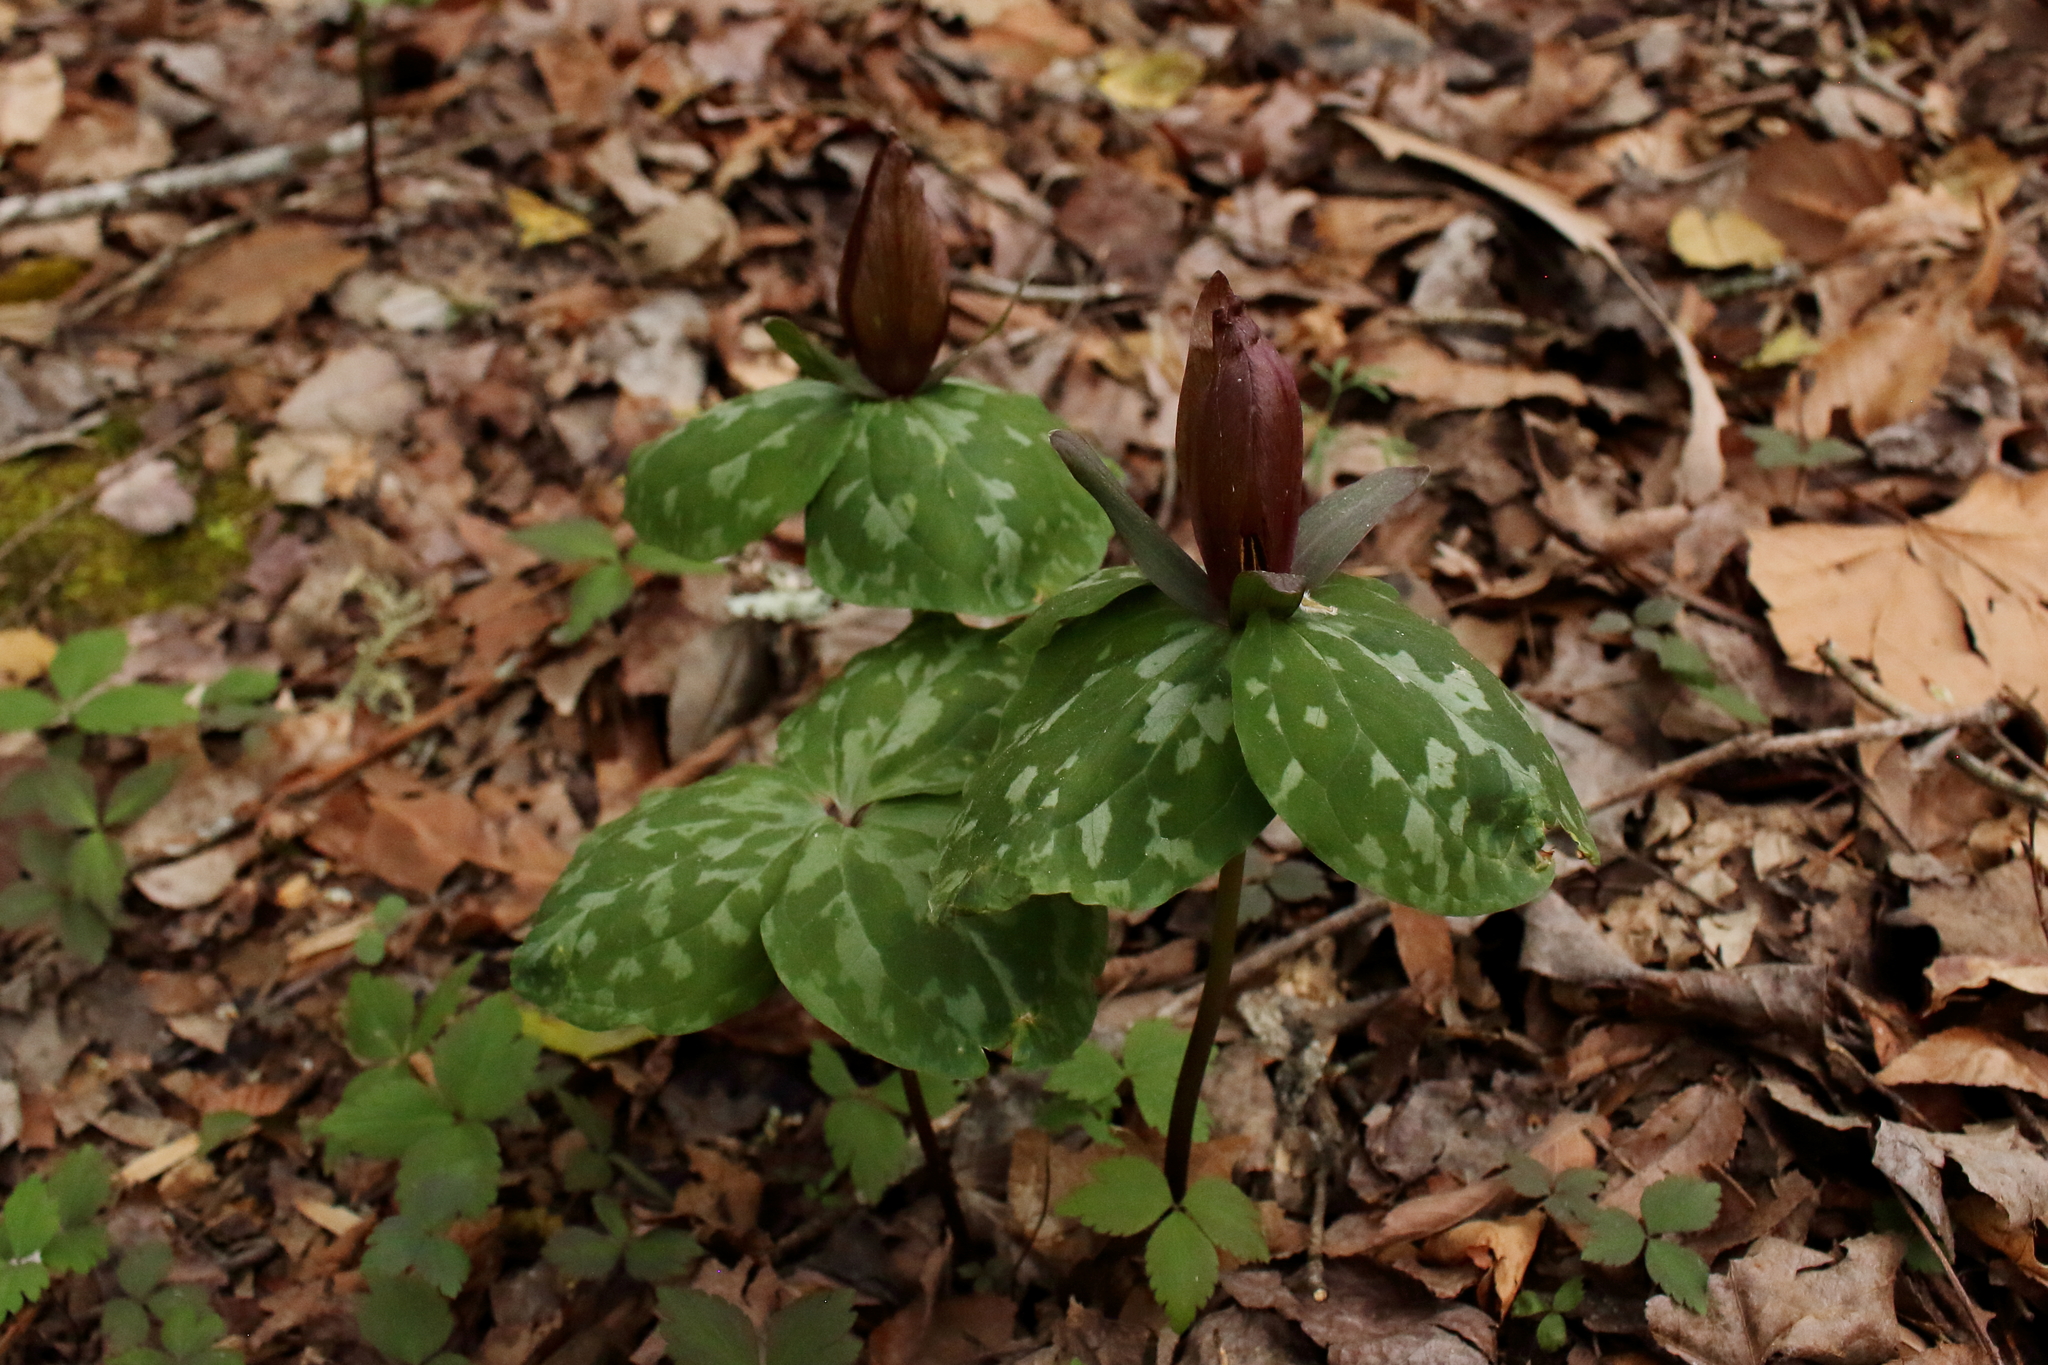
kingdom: Plantae
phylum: Tracheophyta
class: Liliopsida
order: Liliales
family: Melanthiaceae
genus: Trillium
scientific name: Trillium cuneatum
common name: Cuneate trillium
